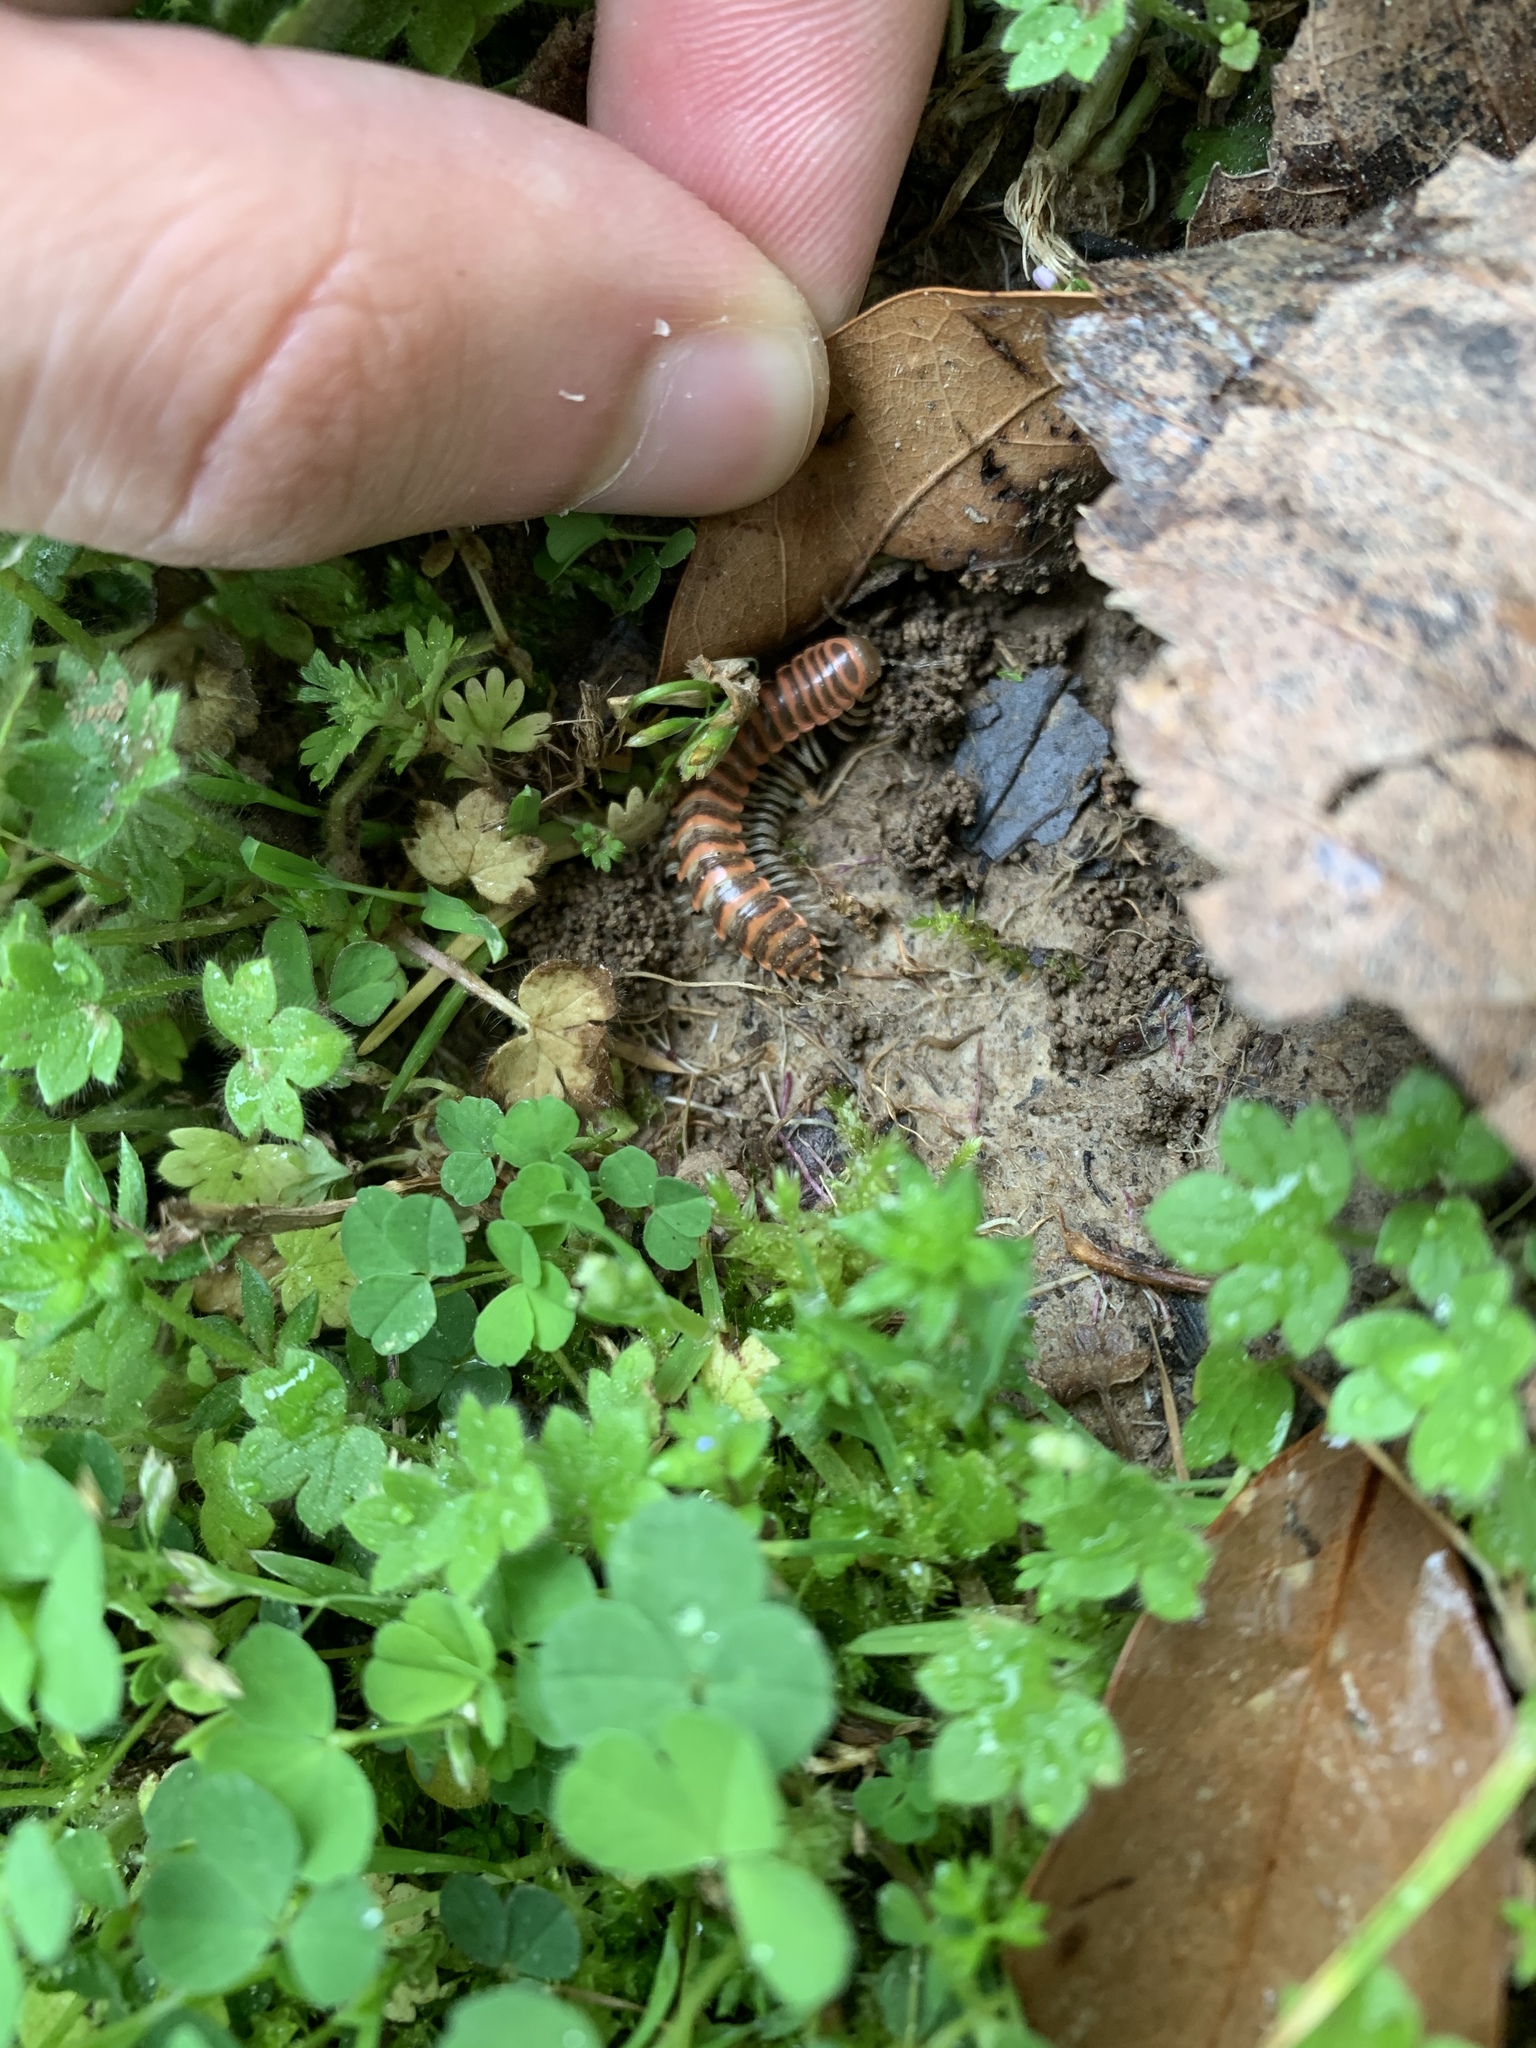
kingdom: Animalia
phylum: Arthropoda
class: Diplopoda
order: Polydesmida
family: Xystodesmidae
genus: Oenomaea
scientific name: Oenomaea pulchella
